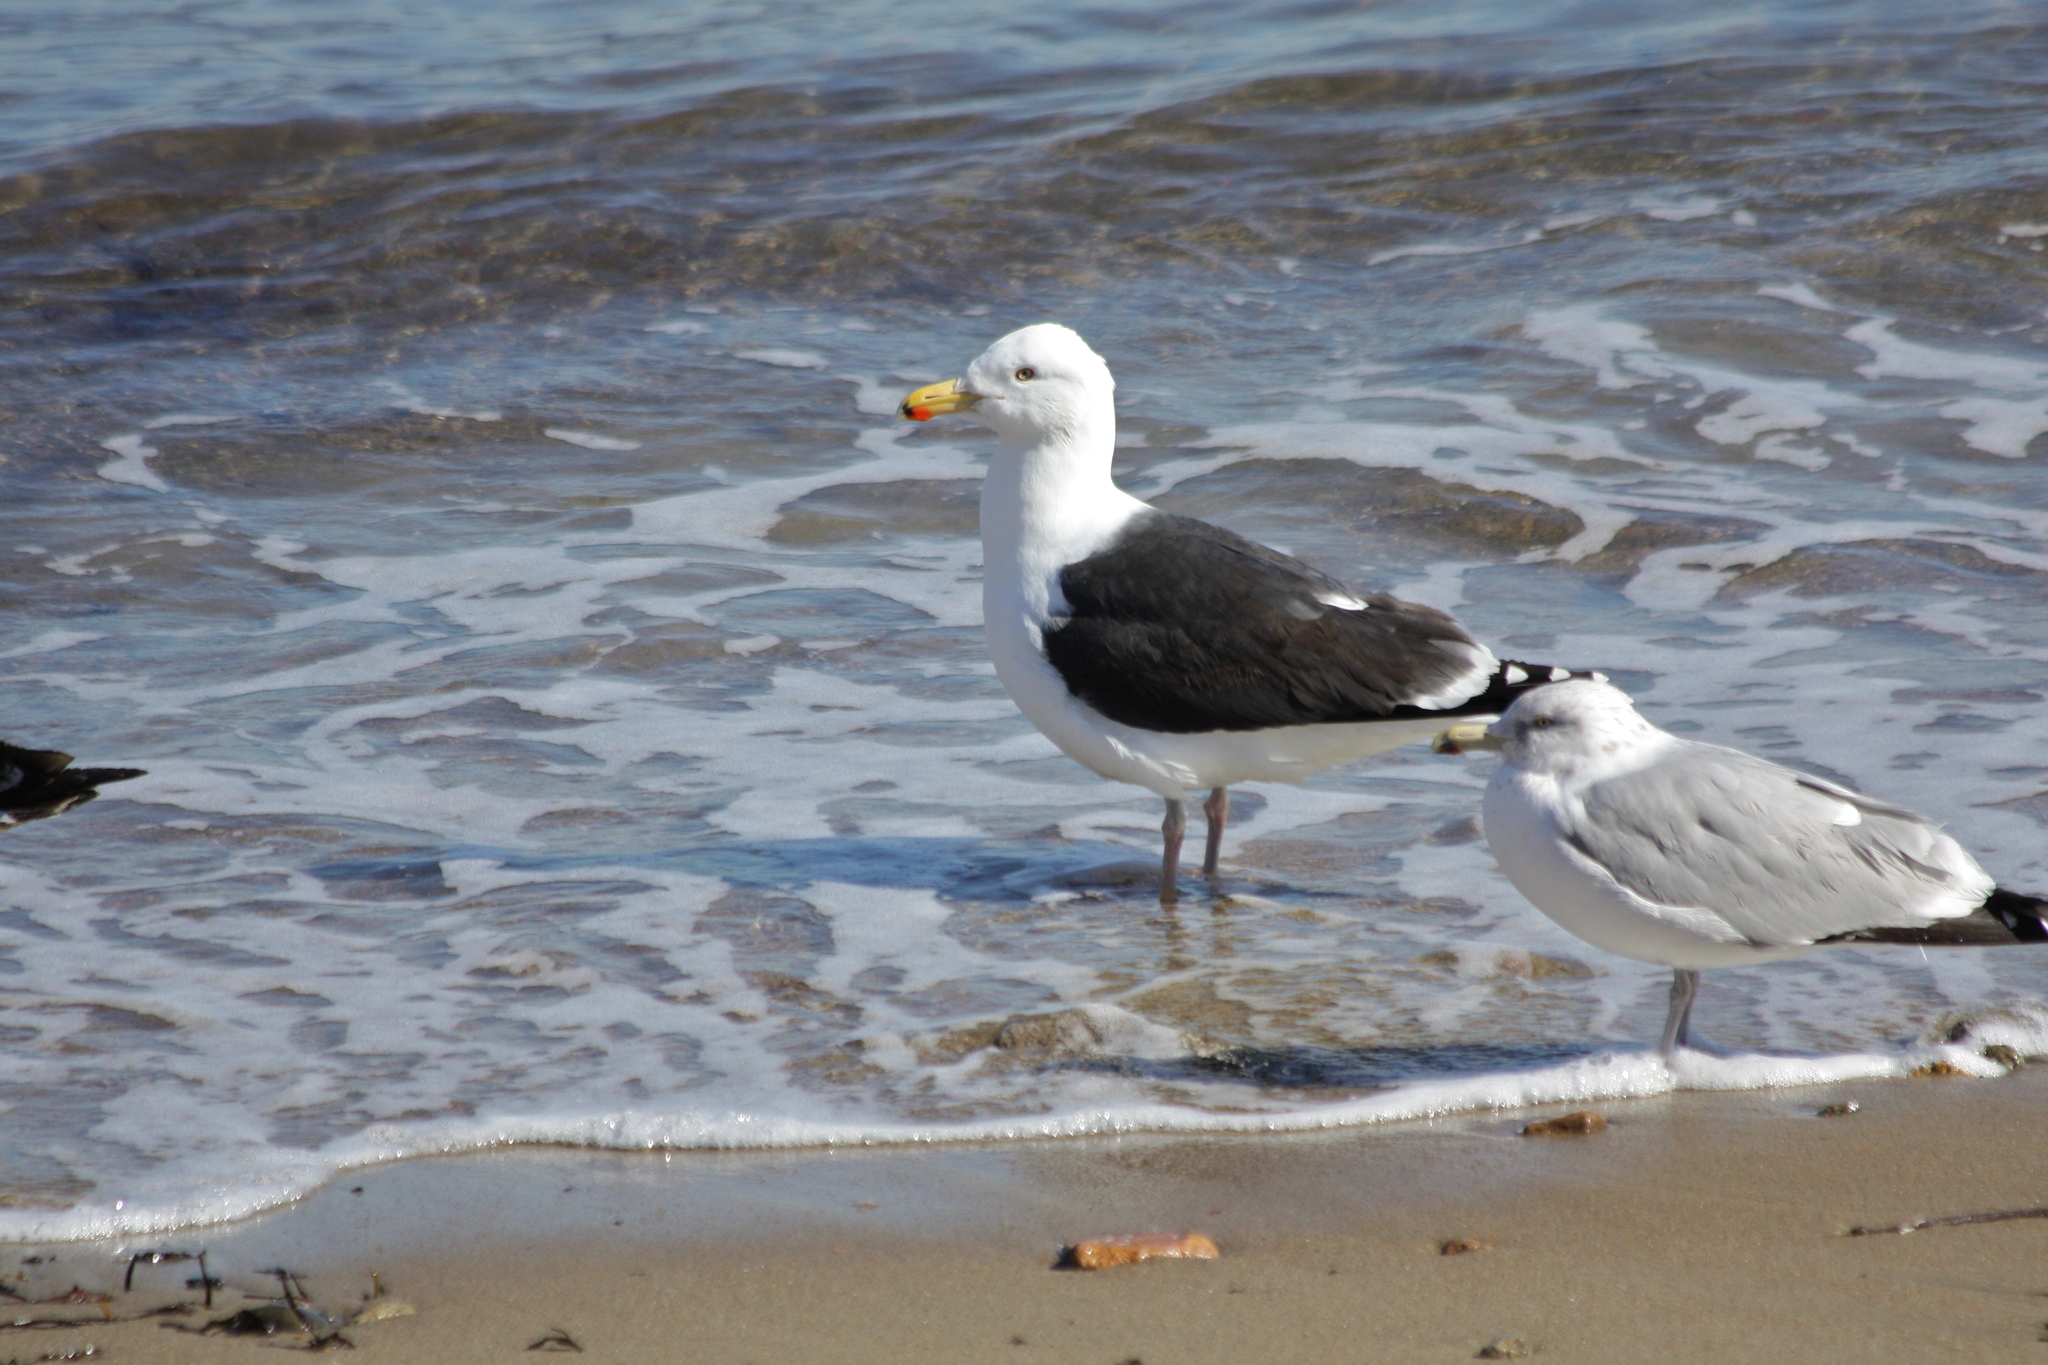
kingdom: Animalia
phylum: Chordata
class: Aves
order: Charadriiformes
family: Laridae
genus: Larus
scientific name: Larus marinus
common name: Great black-backed gull
